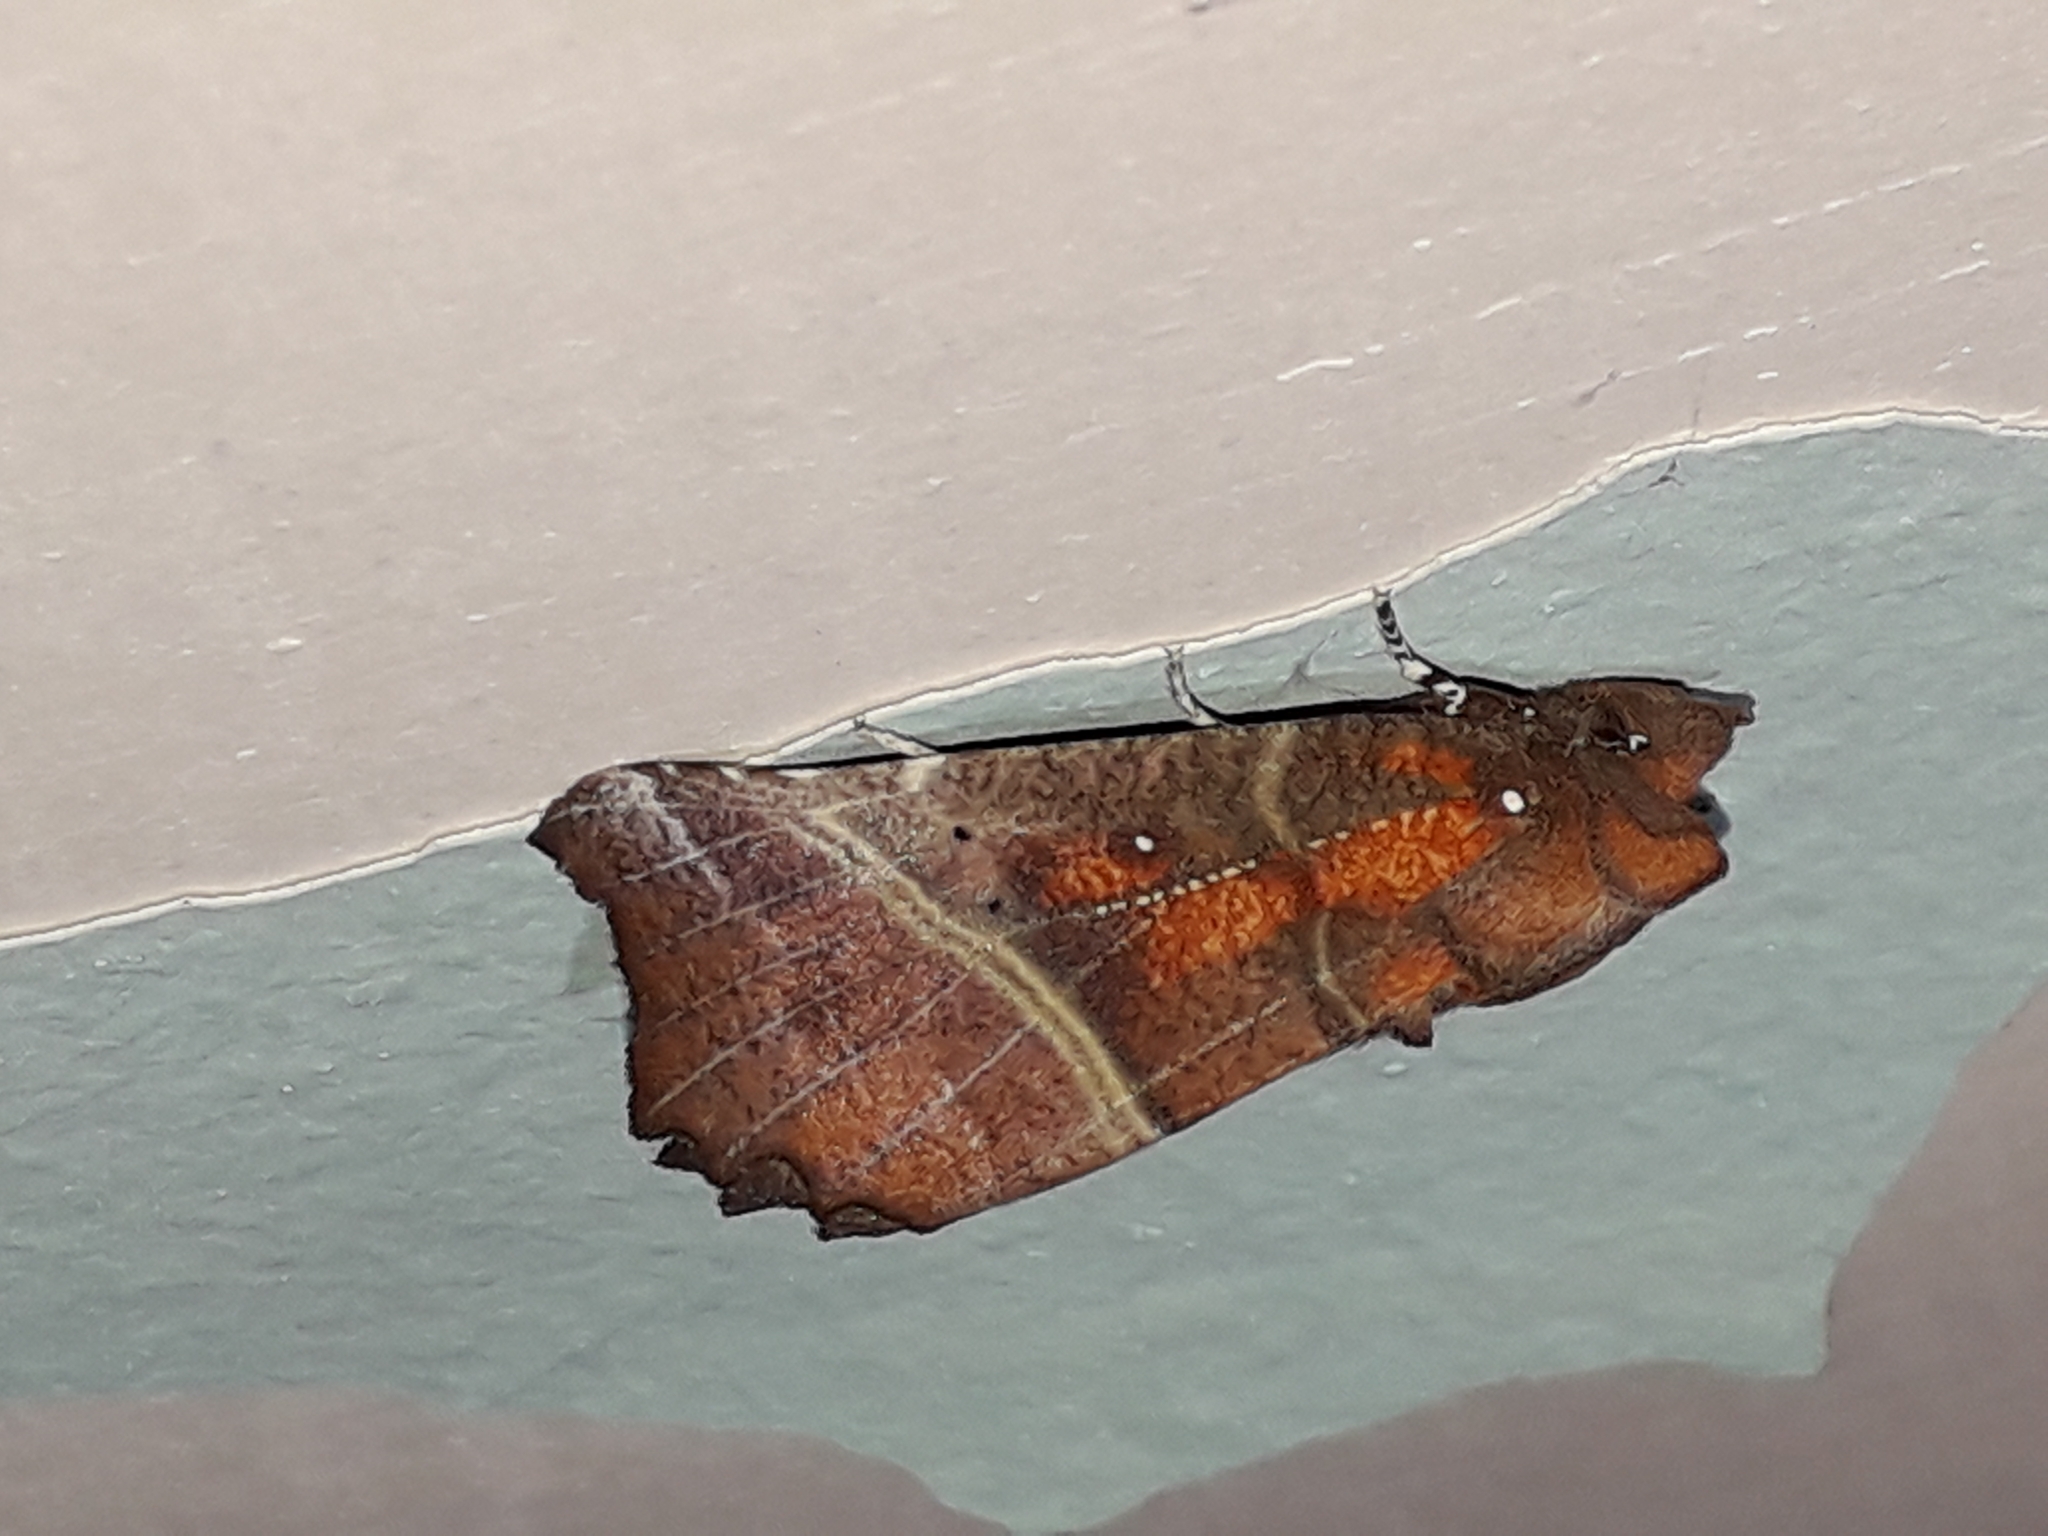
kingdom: Animalia
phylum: Arthropoda
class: Insecta
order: Lepidoptera
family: Erebidae
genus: Scoliopteryx
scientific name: Scoliopteryx libatrix
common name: Herald
